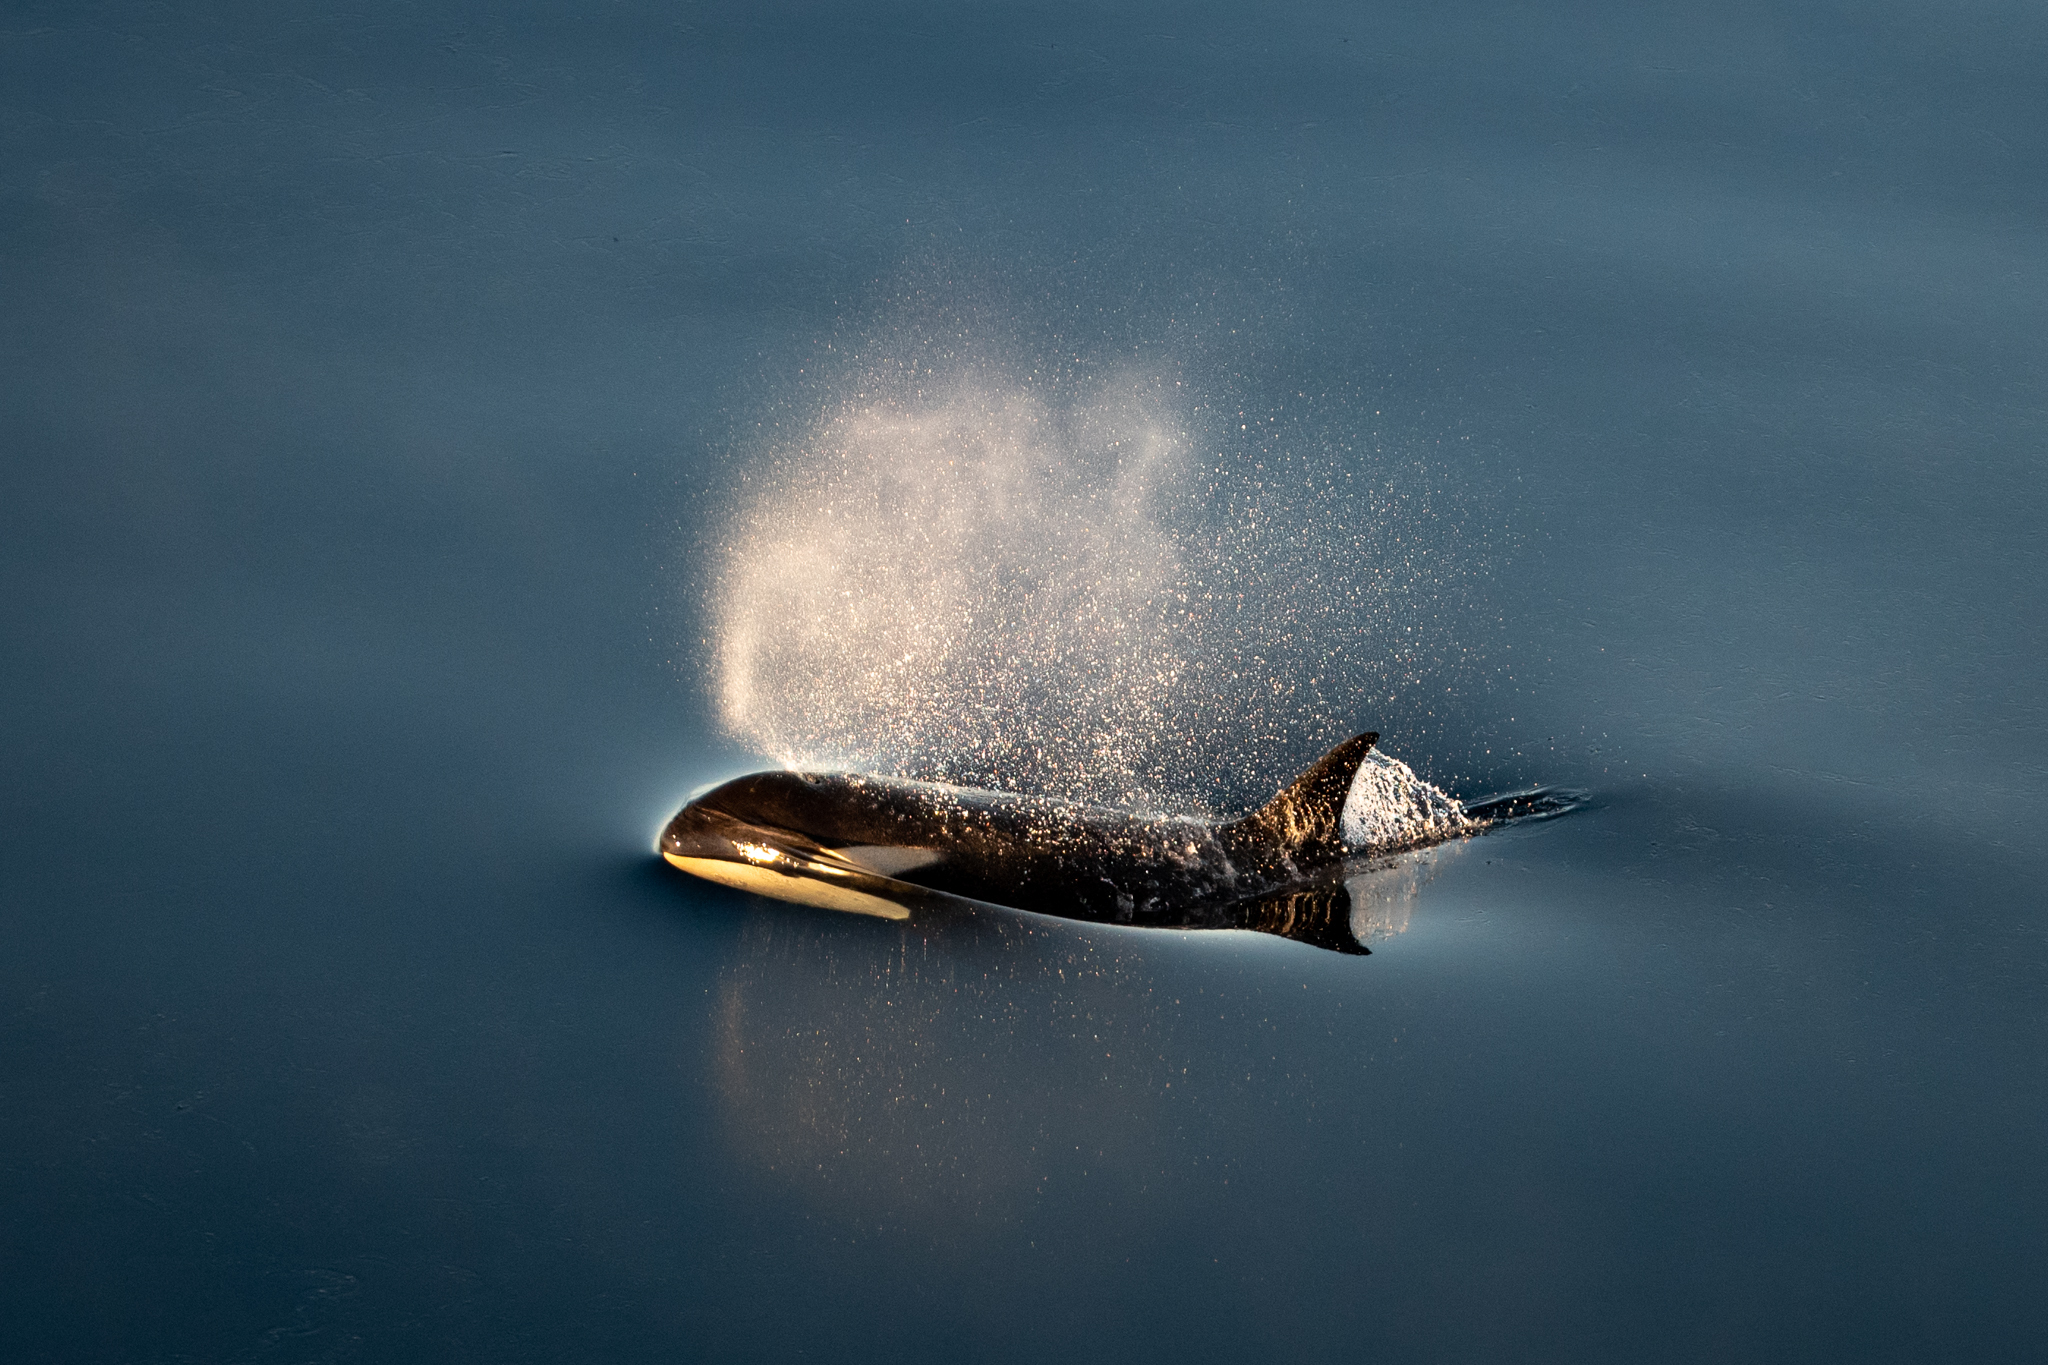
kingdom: Animalia
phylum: Chordata
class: Mammalia
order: Cetacea
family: Delphinidae
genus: Orcinus
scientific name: Orcinus orca
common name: Killer whale
